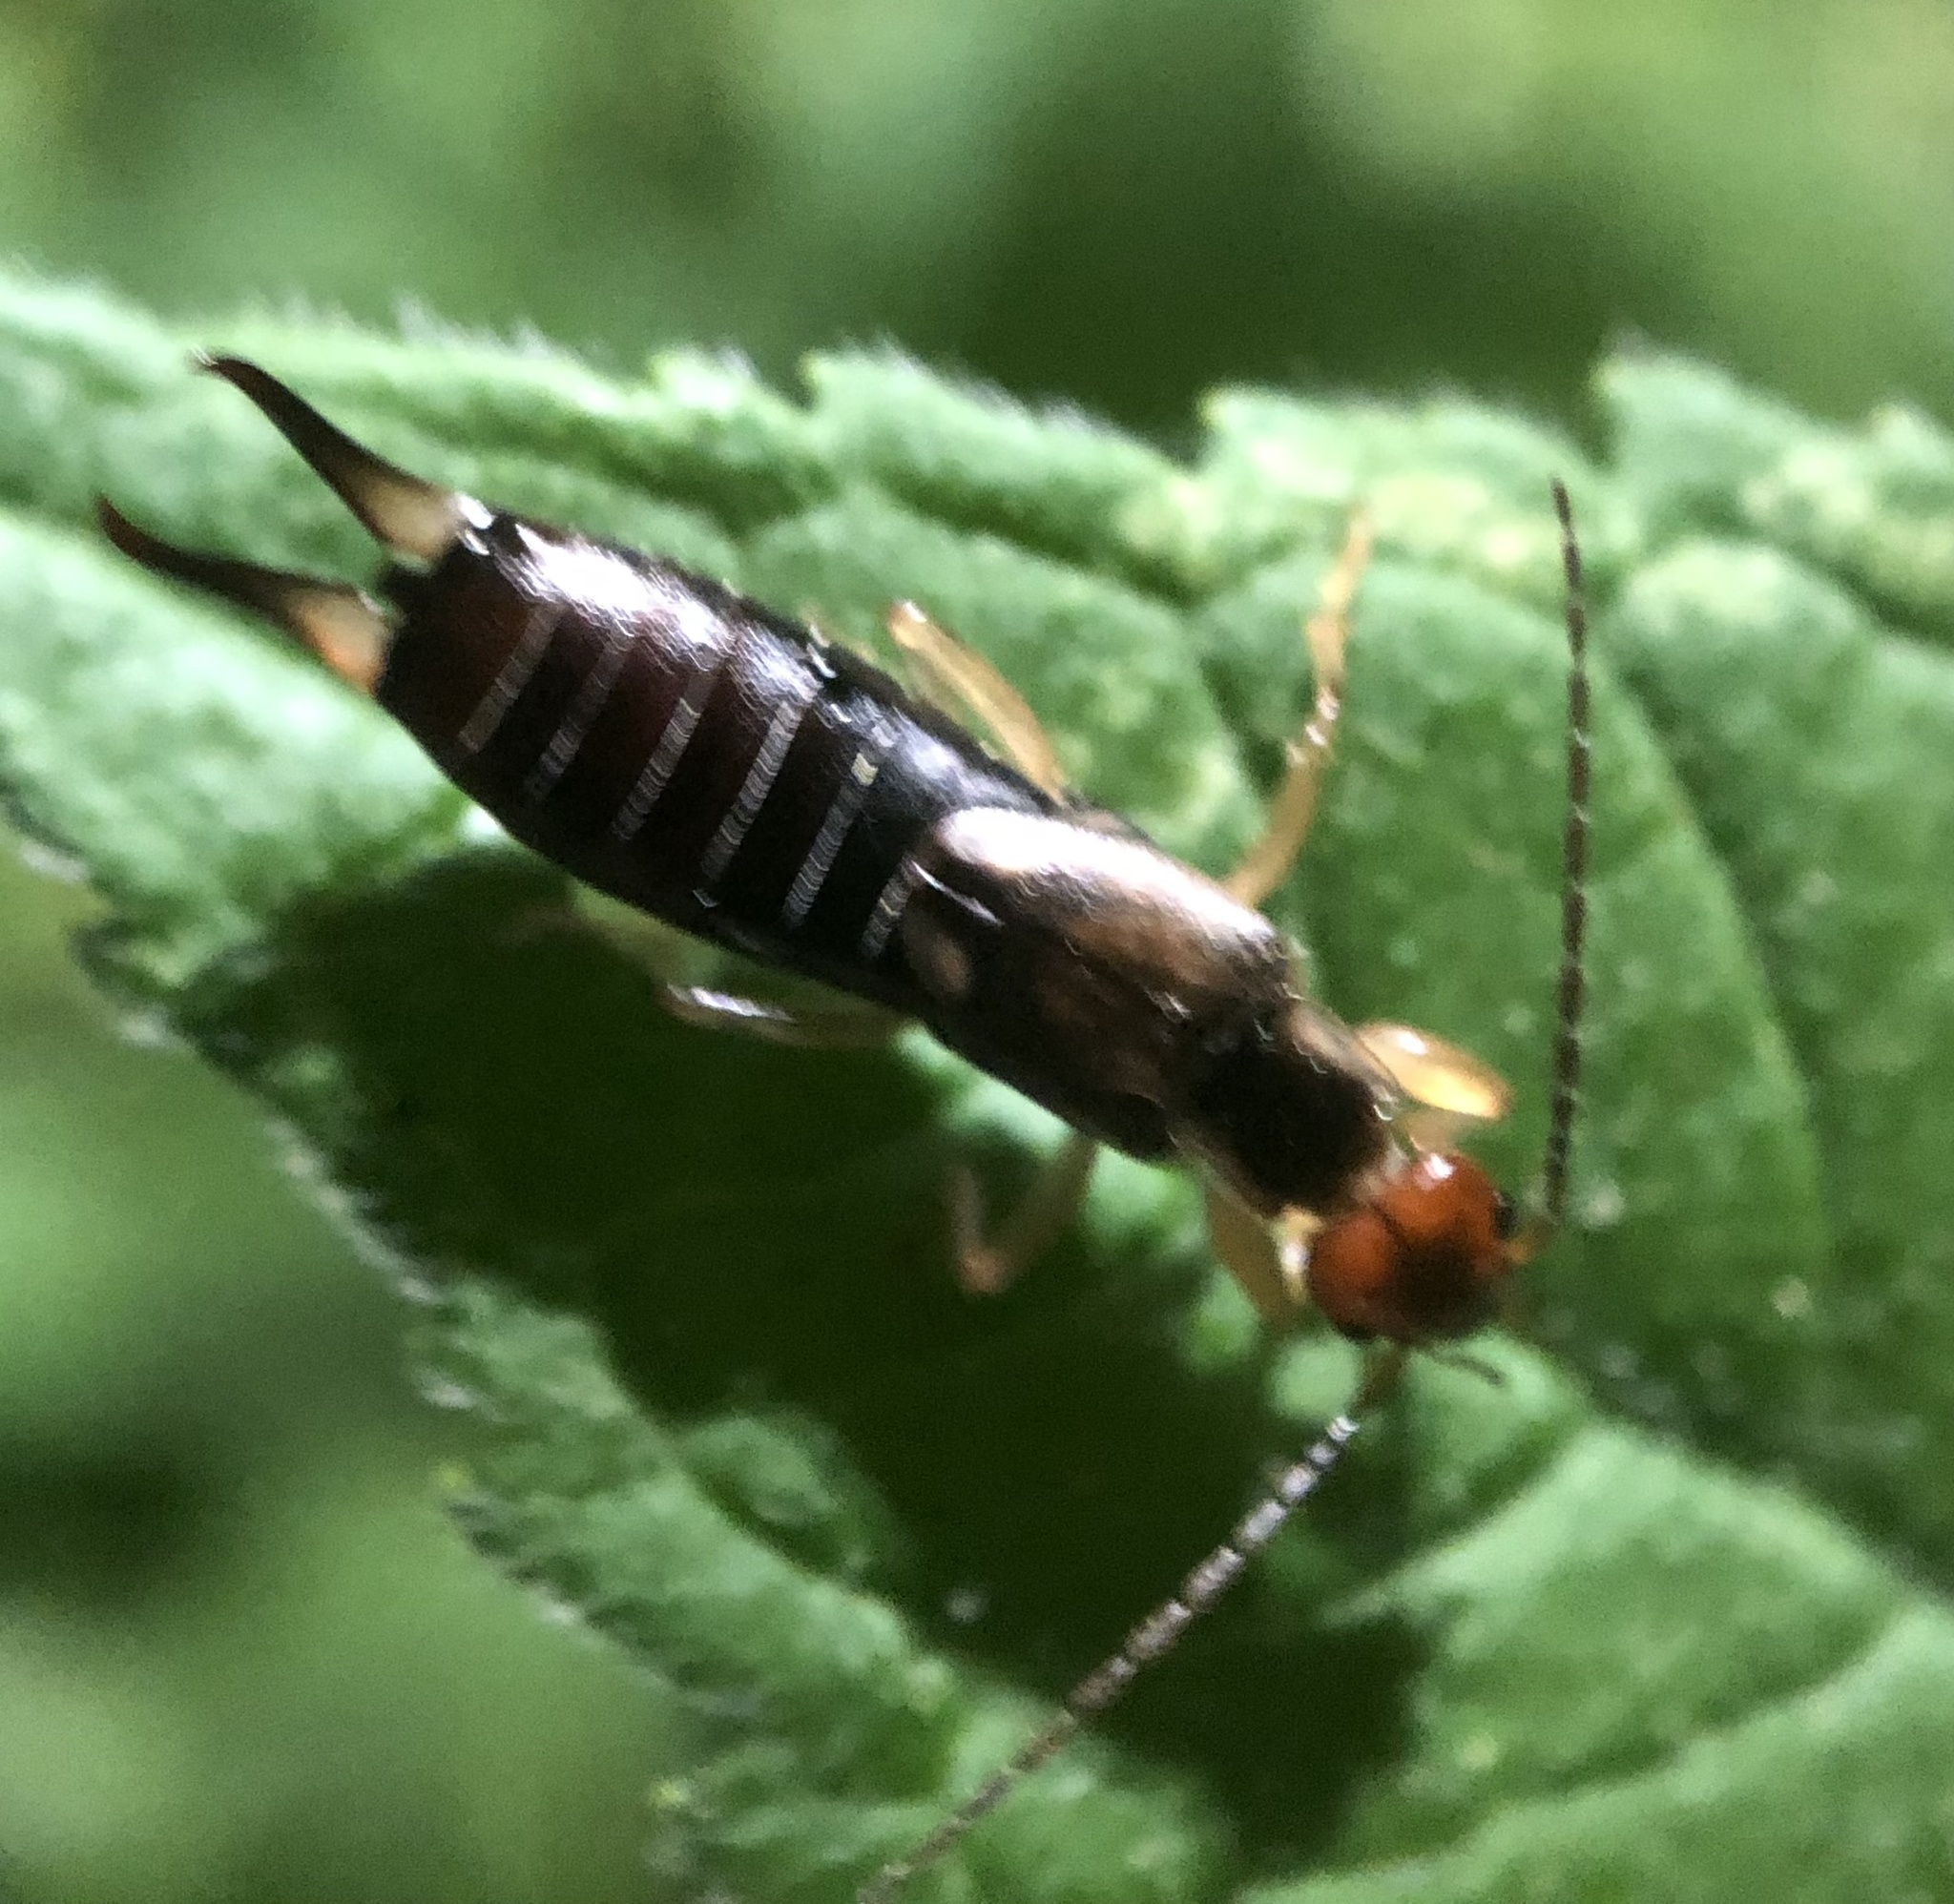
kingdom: Animalia
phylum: Arthropoda
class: Insecta
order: Dermaptera
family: Forficulidae
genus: Forficula
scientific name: Forficula
